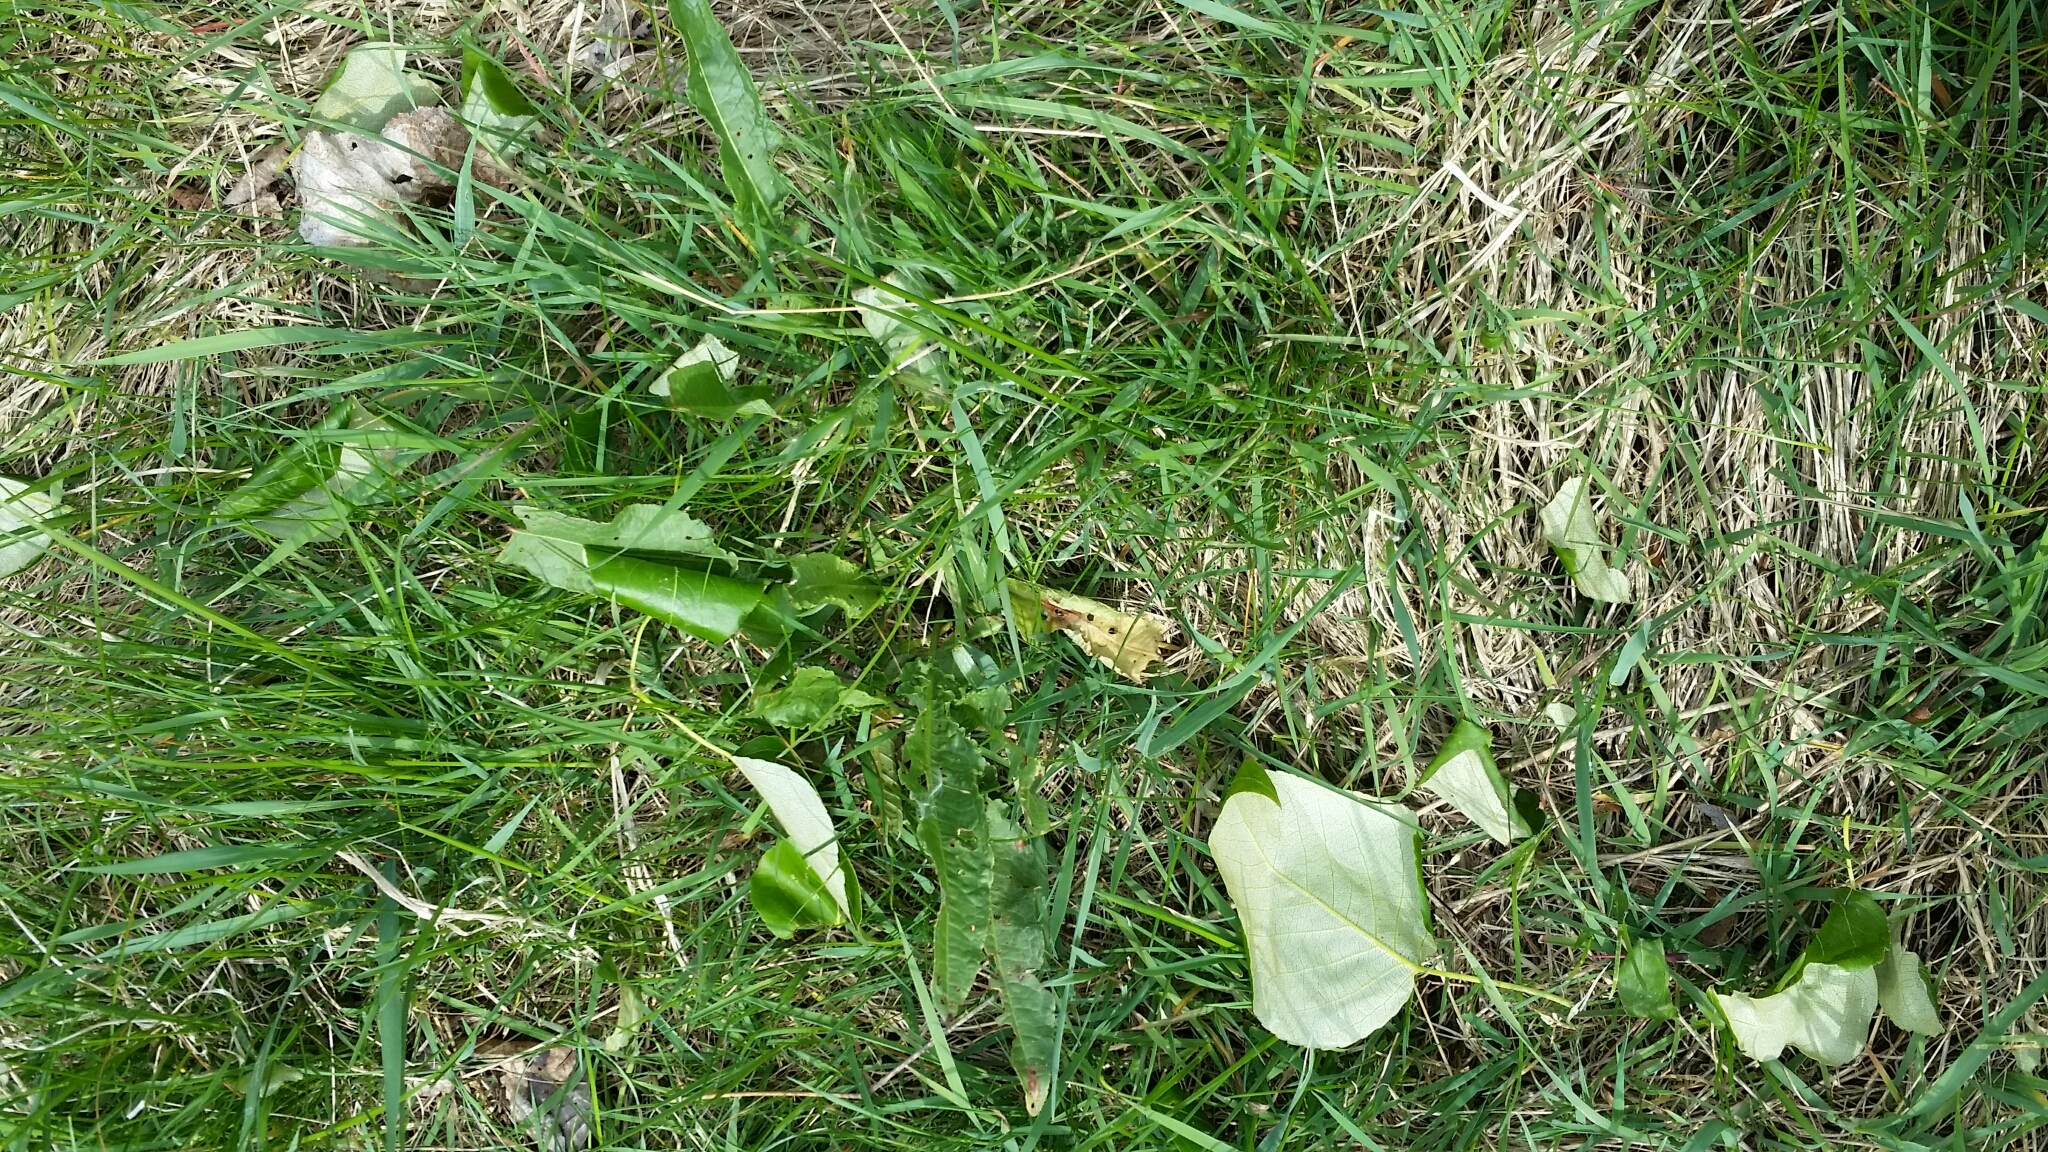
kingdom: Plantae
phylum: Tracheophyta
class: Magnoliopsida
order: Caryophyllales
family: Polygonaceae
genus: Rumex
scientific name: Rumex crispus
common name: Curled dock
